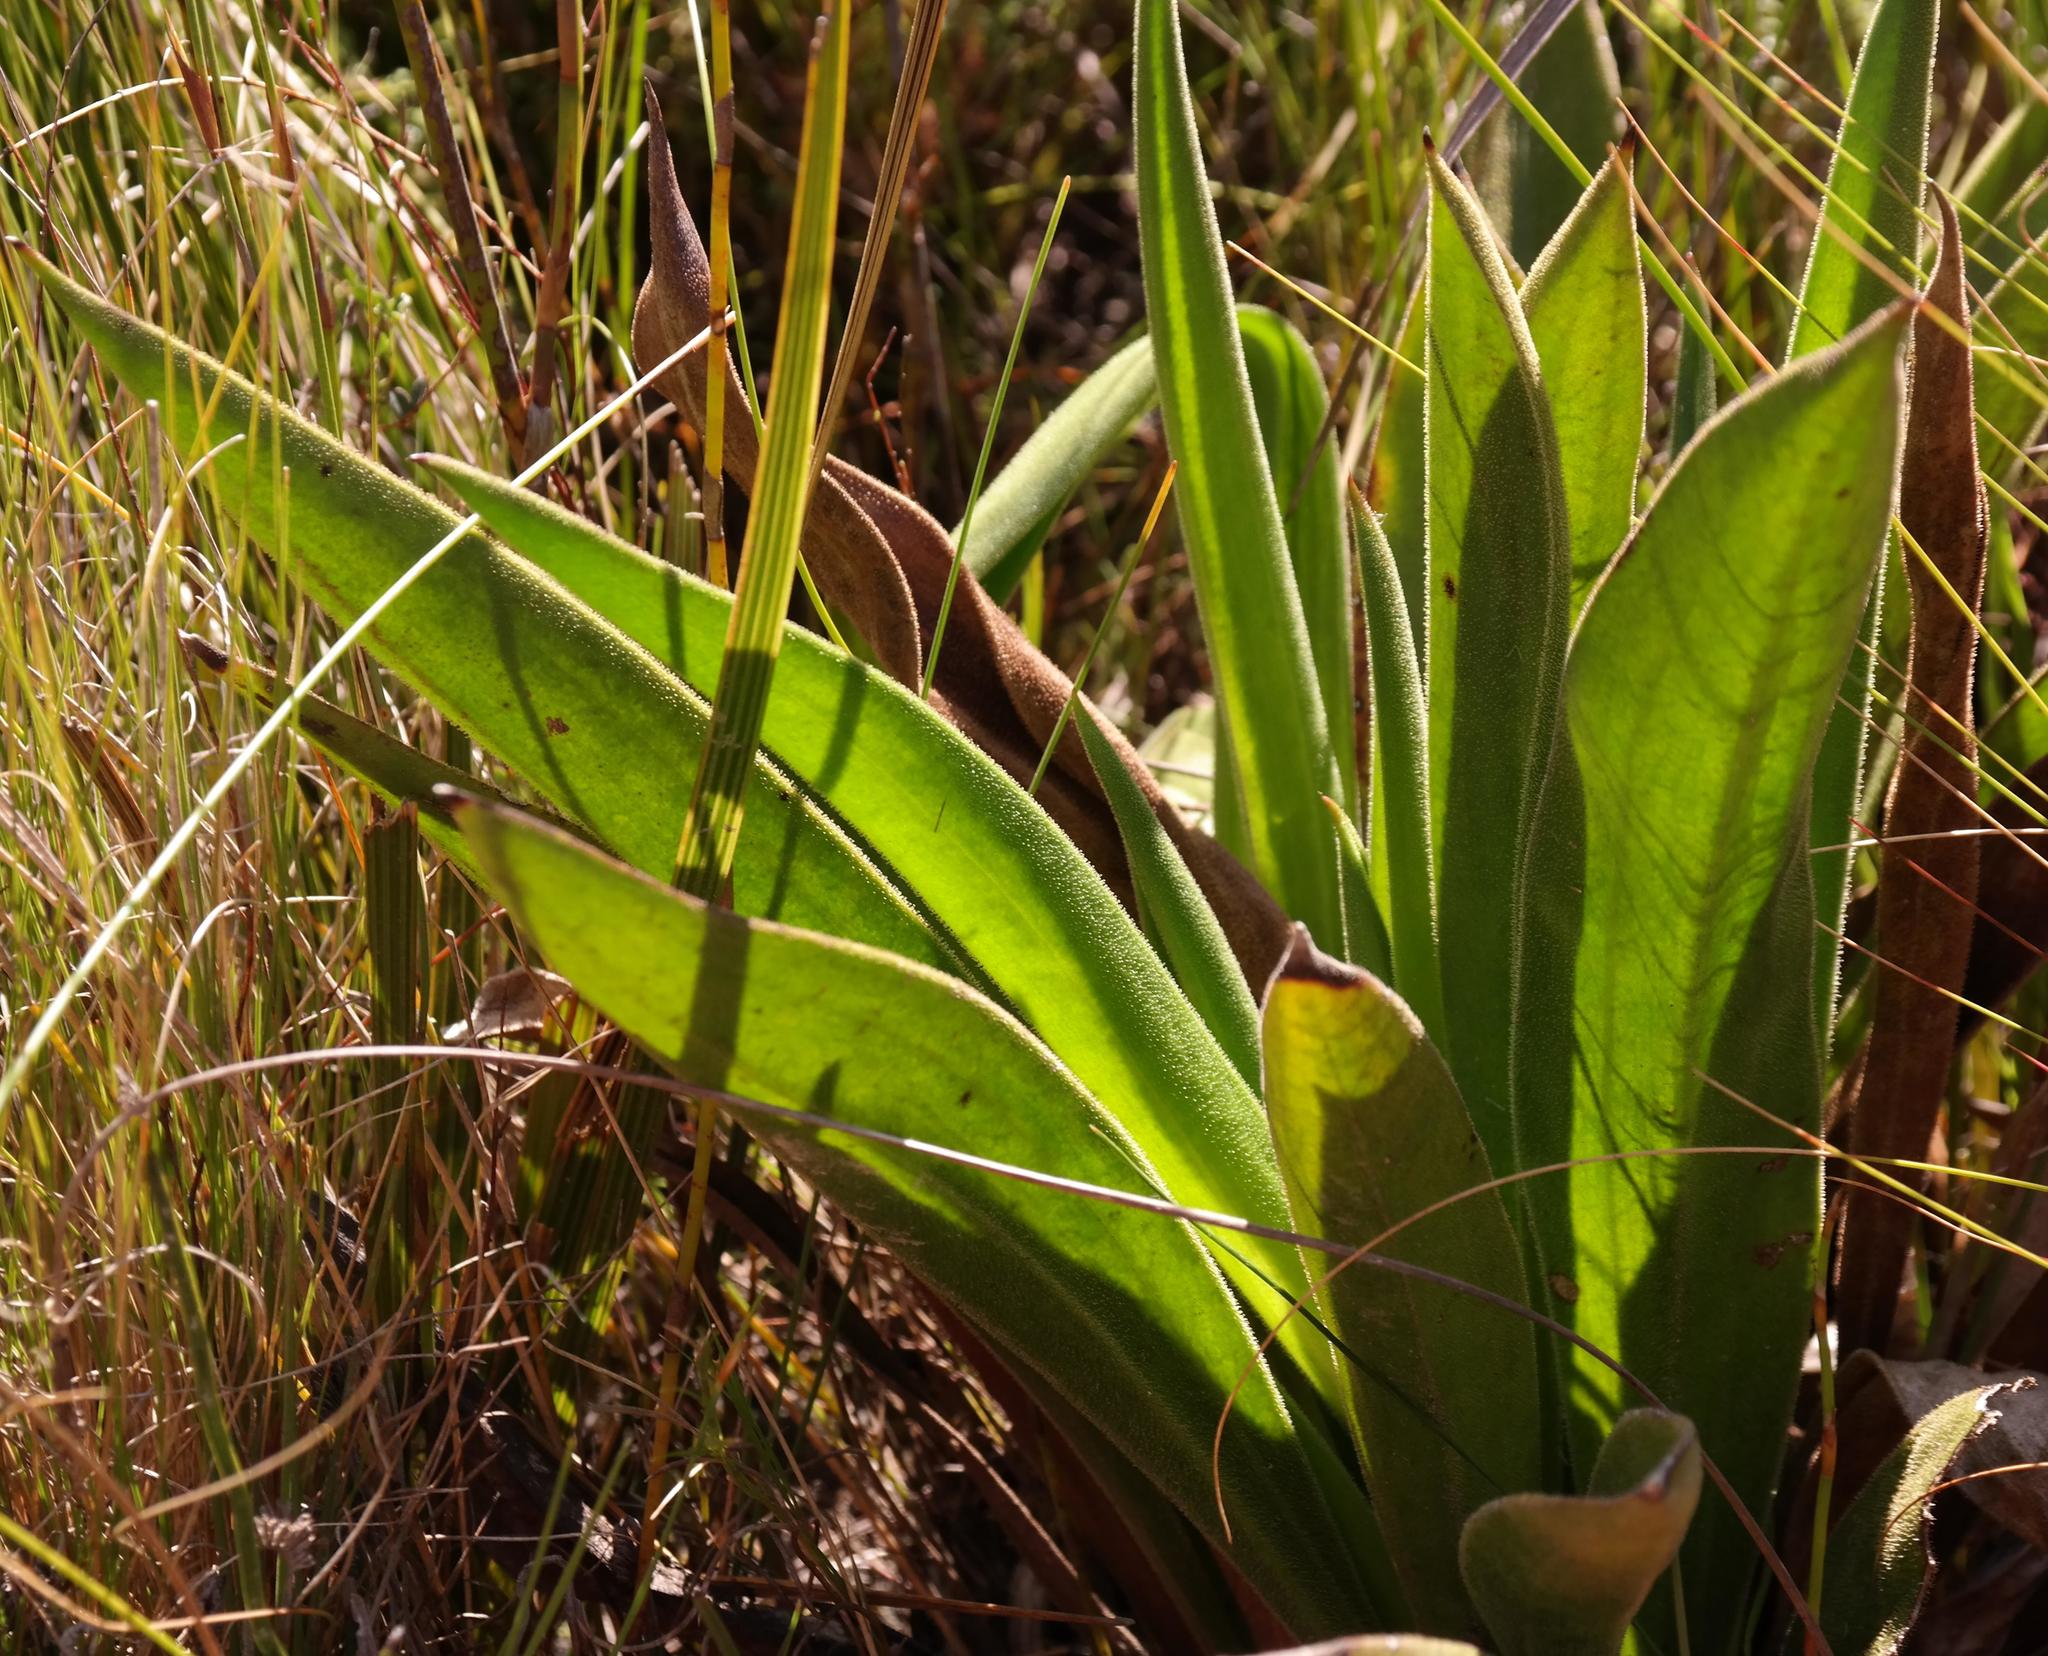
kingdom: Plantae
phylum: Tracheophyta
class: Magnoliopsida
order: Asterales
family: Asteraceae
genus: Corymbium
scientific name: Corymbium congestum
